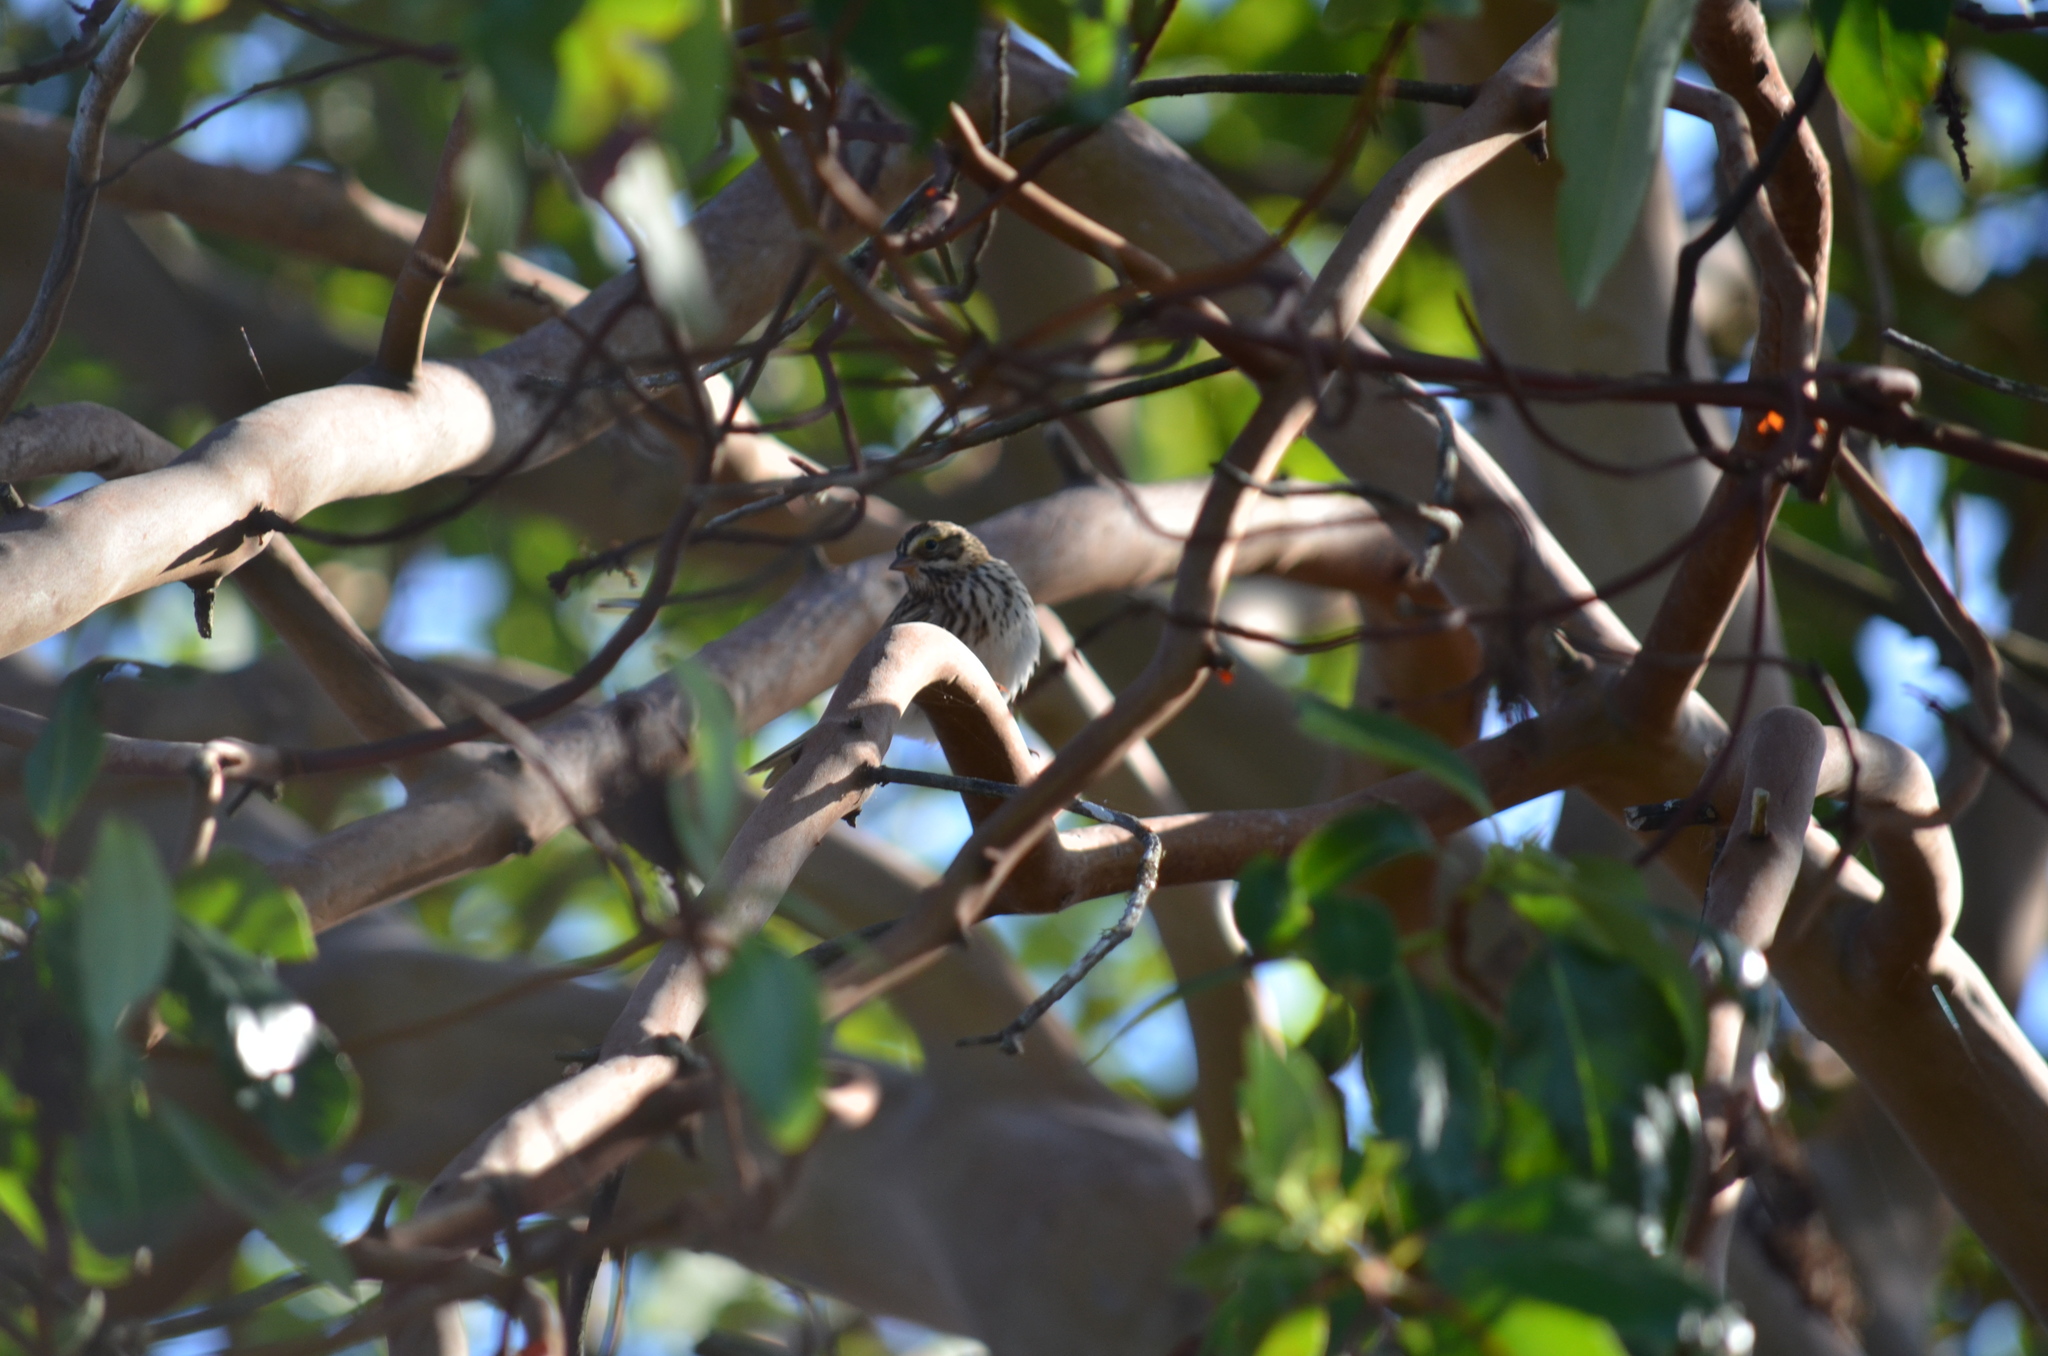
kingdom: Animalia
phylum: Chordata
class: Aves
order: Passeriformes
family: Passerellidae
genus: Passerculus
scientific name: Passerculus sandwichensis
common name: Savannah sparrow
